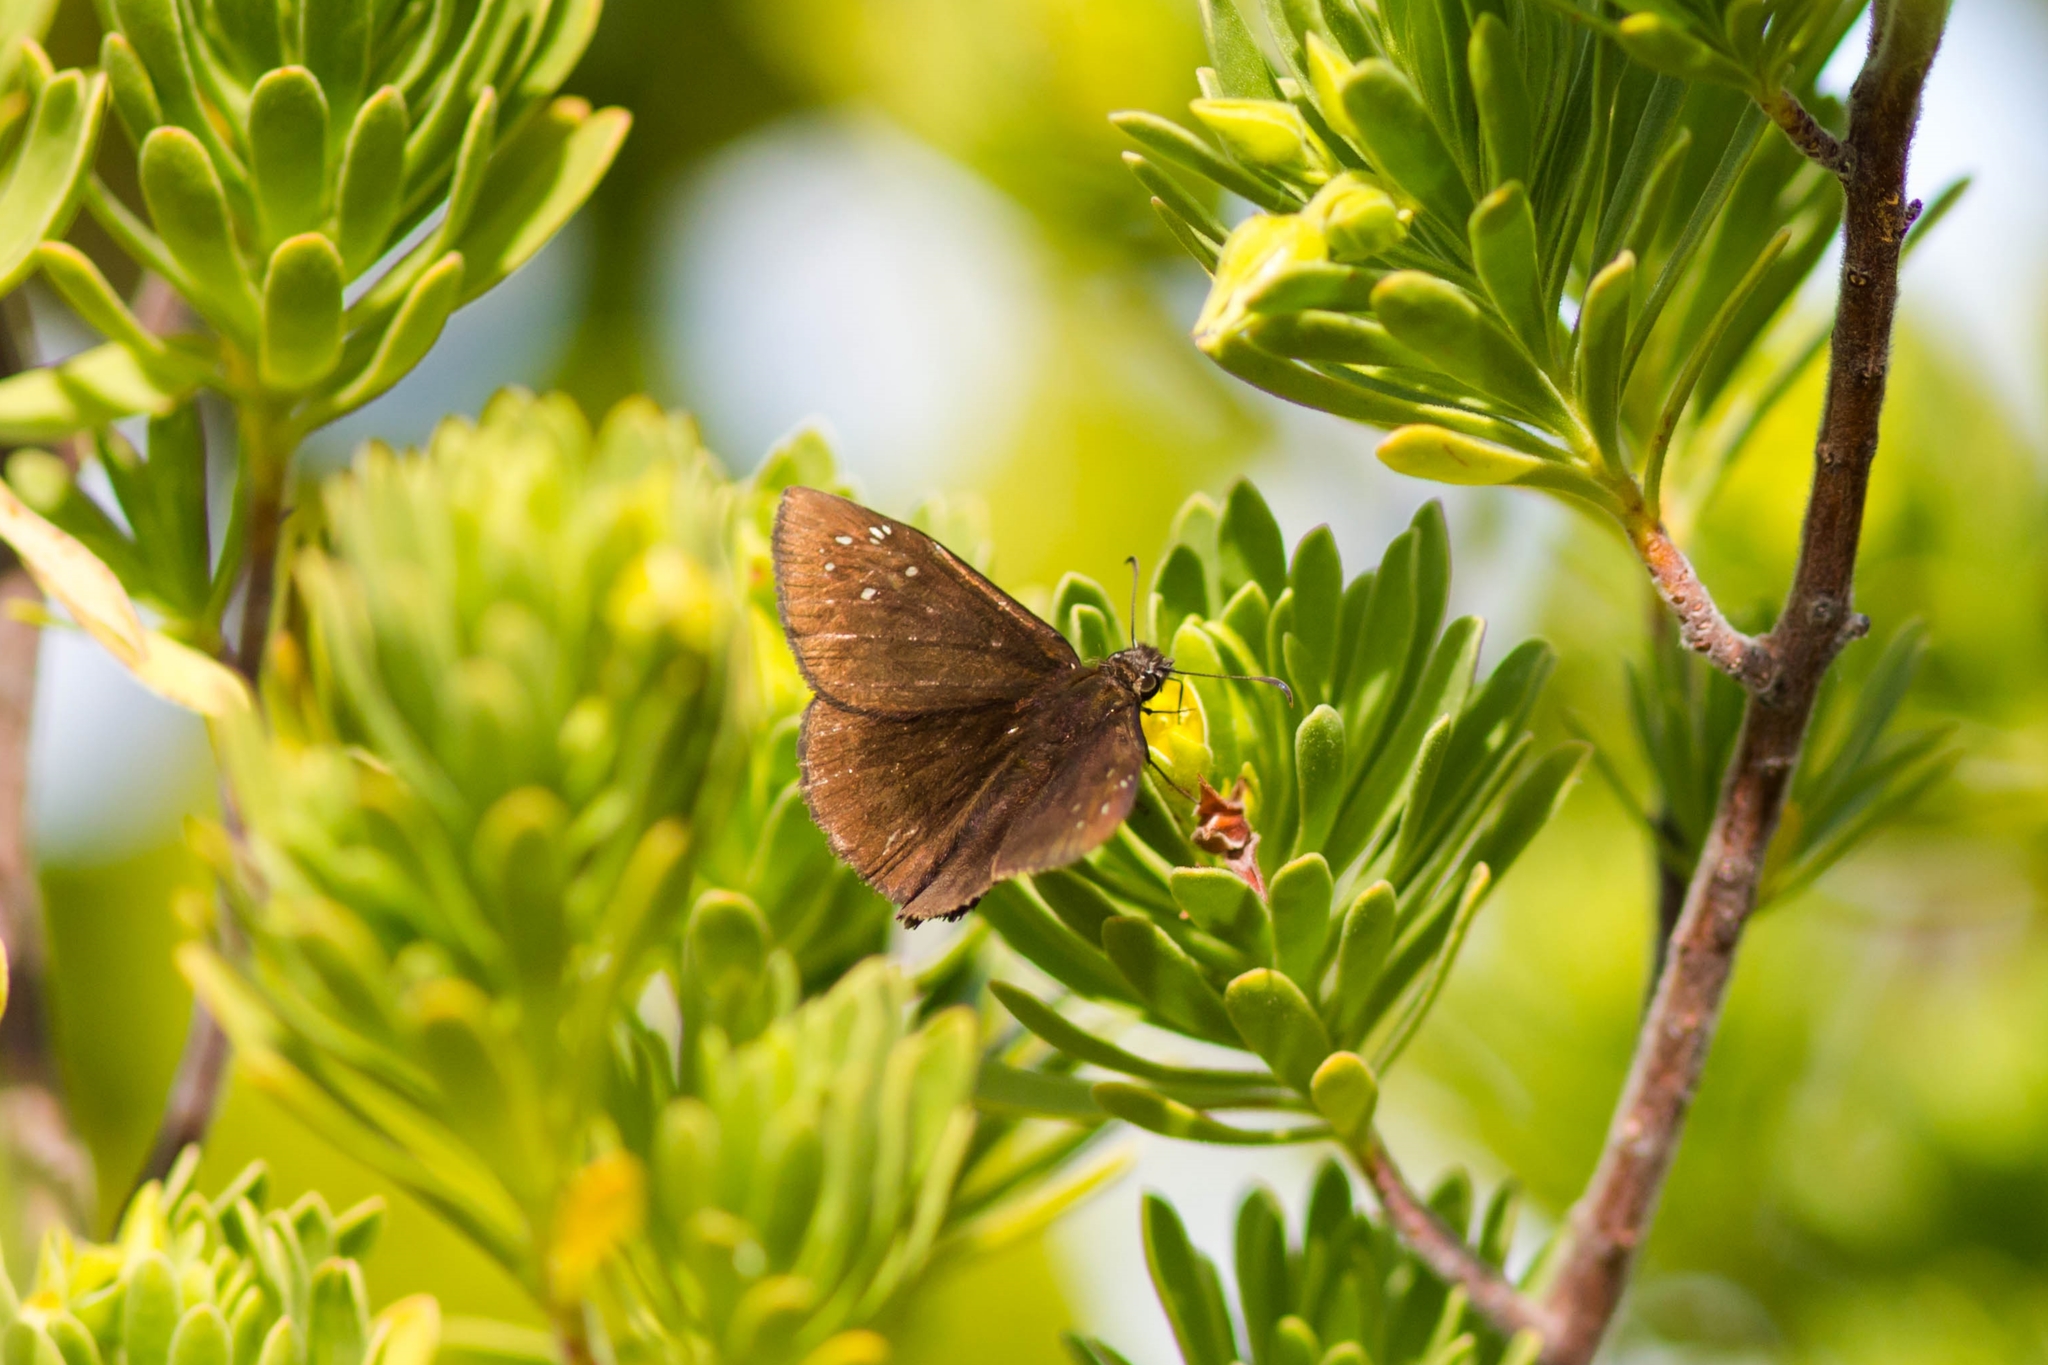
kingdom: Animalia
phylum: Arthropoda
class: Insecta
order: Lepidoptera
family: Hesperiidae
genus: Ephyriades
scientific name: Ephyriades brunnea
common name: Florida duskywing
